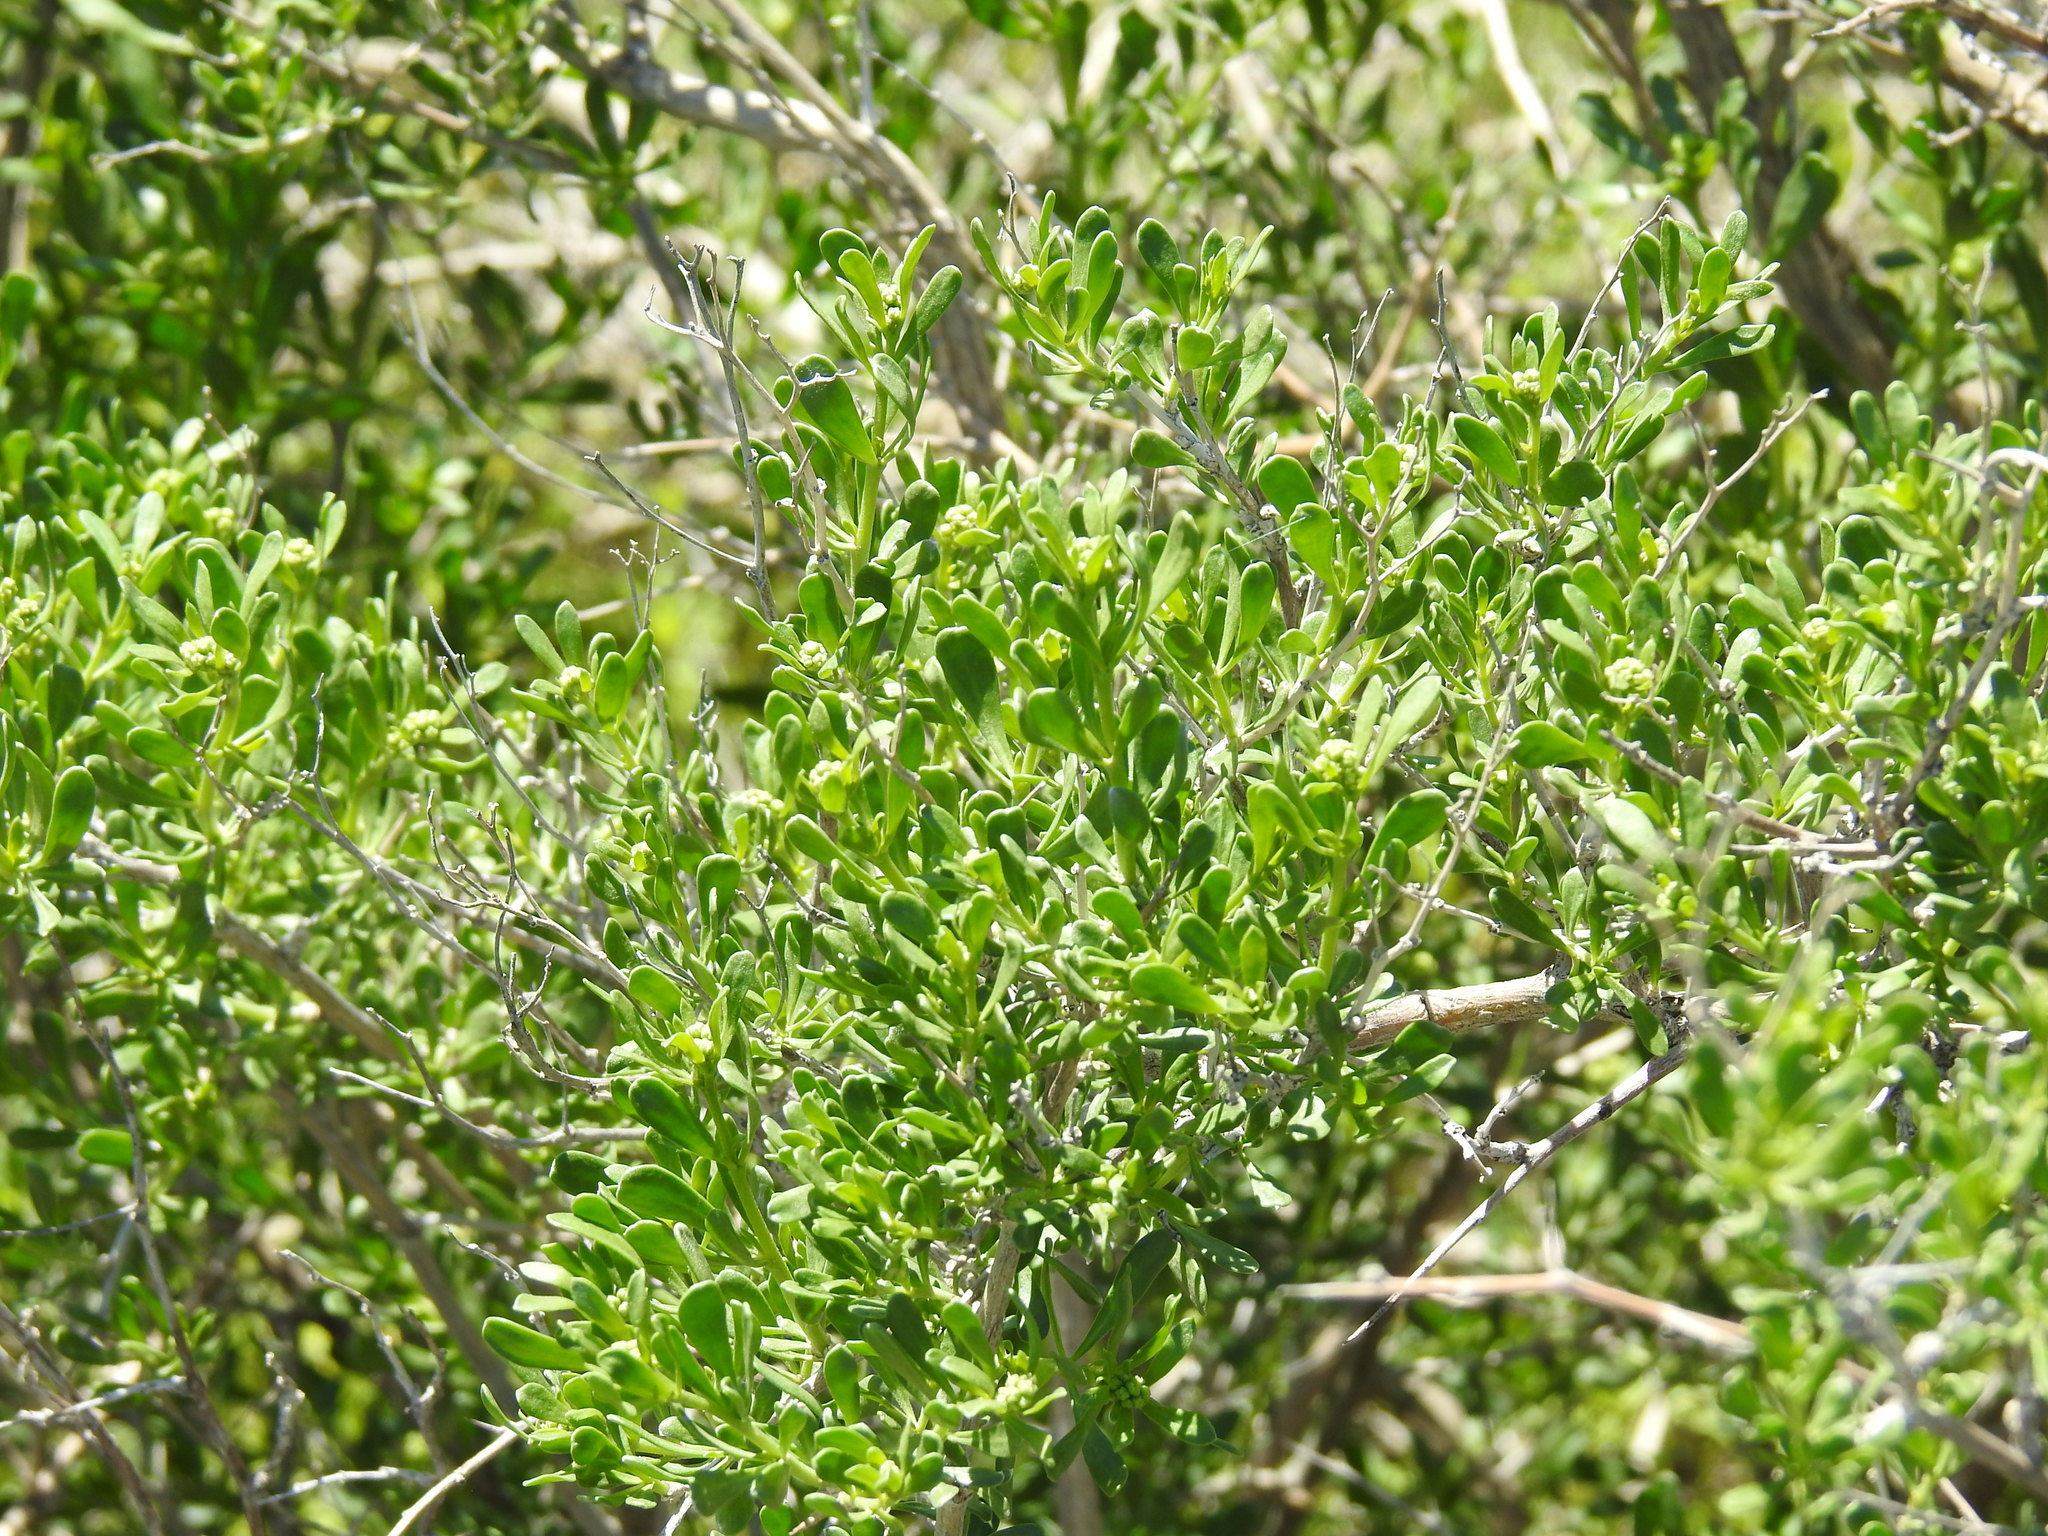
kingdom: Plantae
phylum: Tracheophyta
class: Magnoliopsida
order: Sapindales
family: Nitrariaceae
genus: Nitraria
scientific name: Nitraria schoberi
